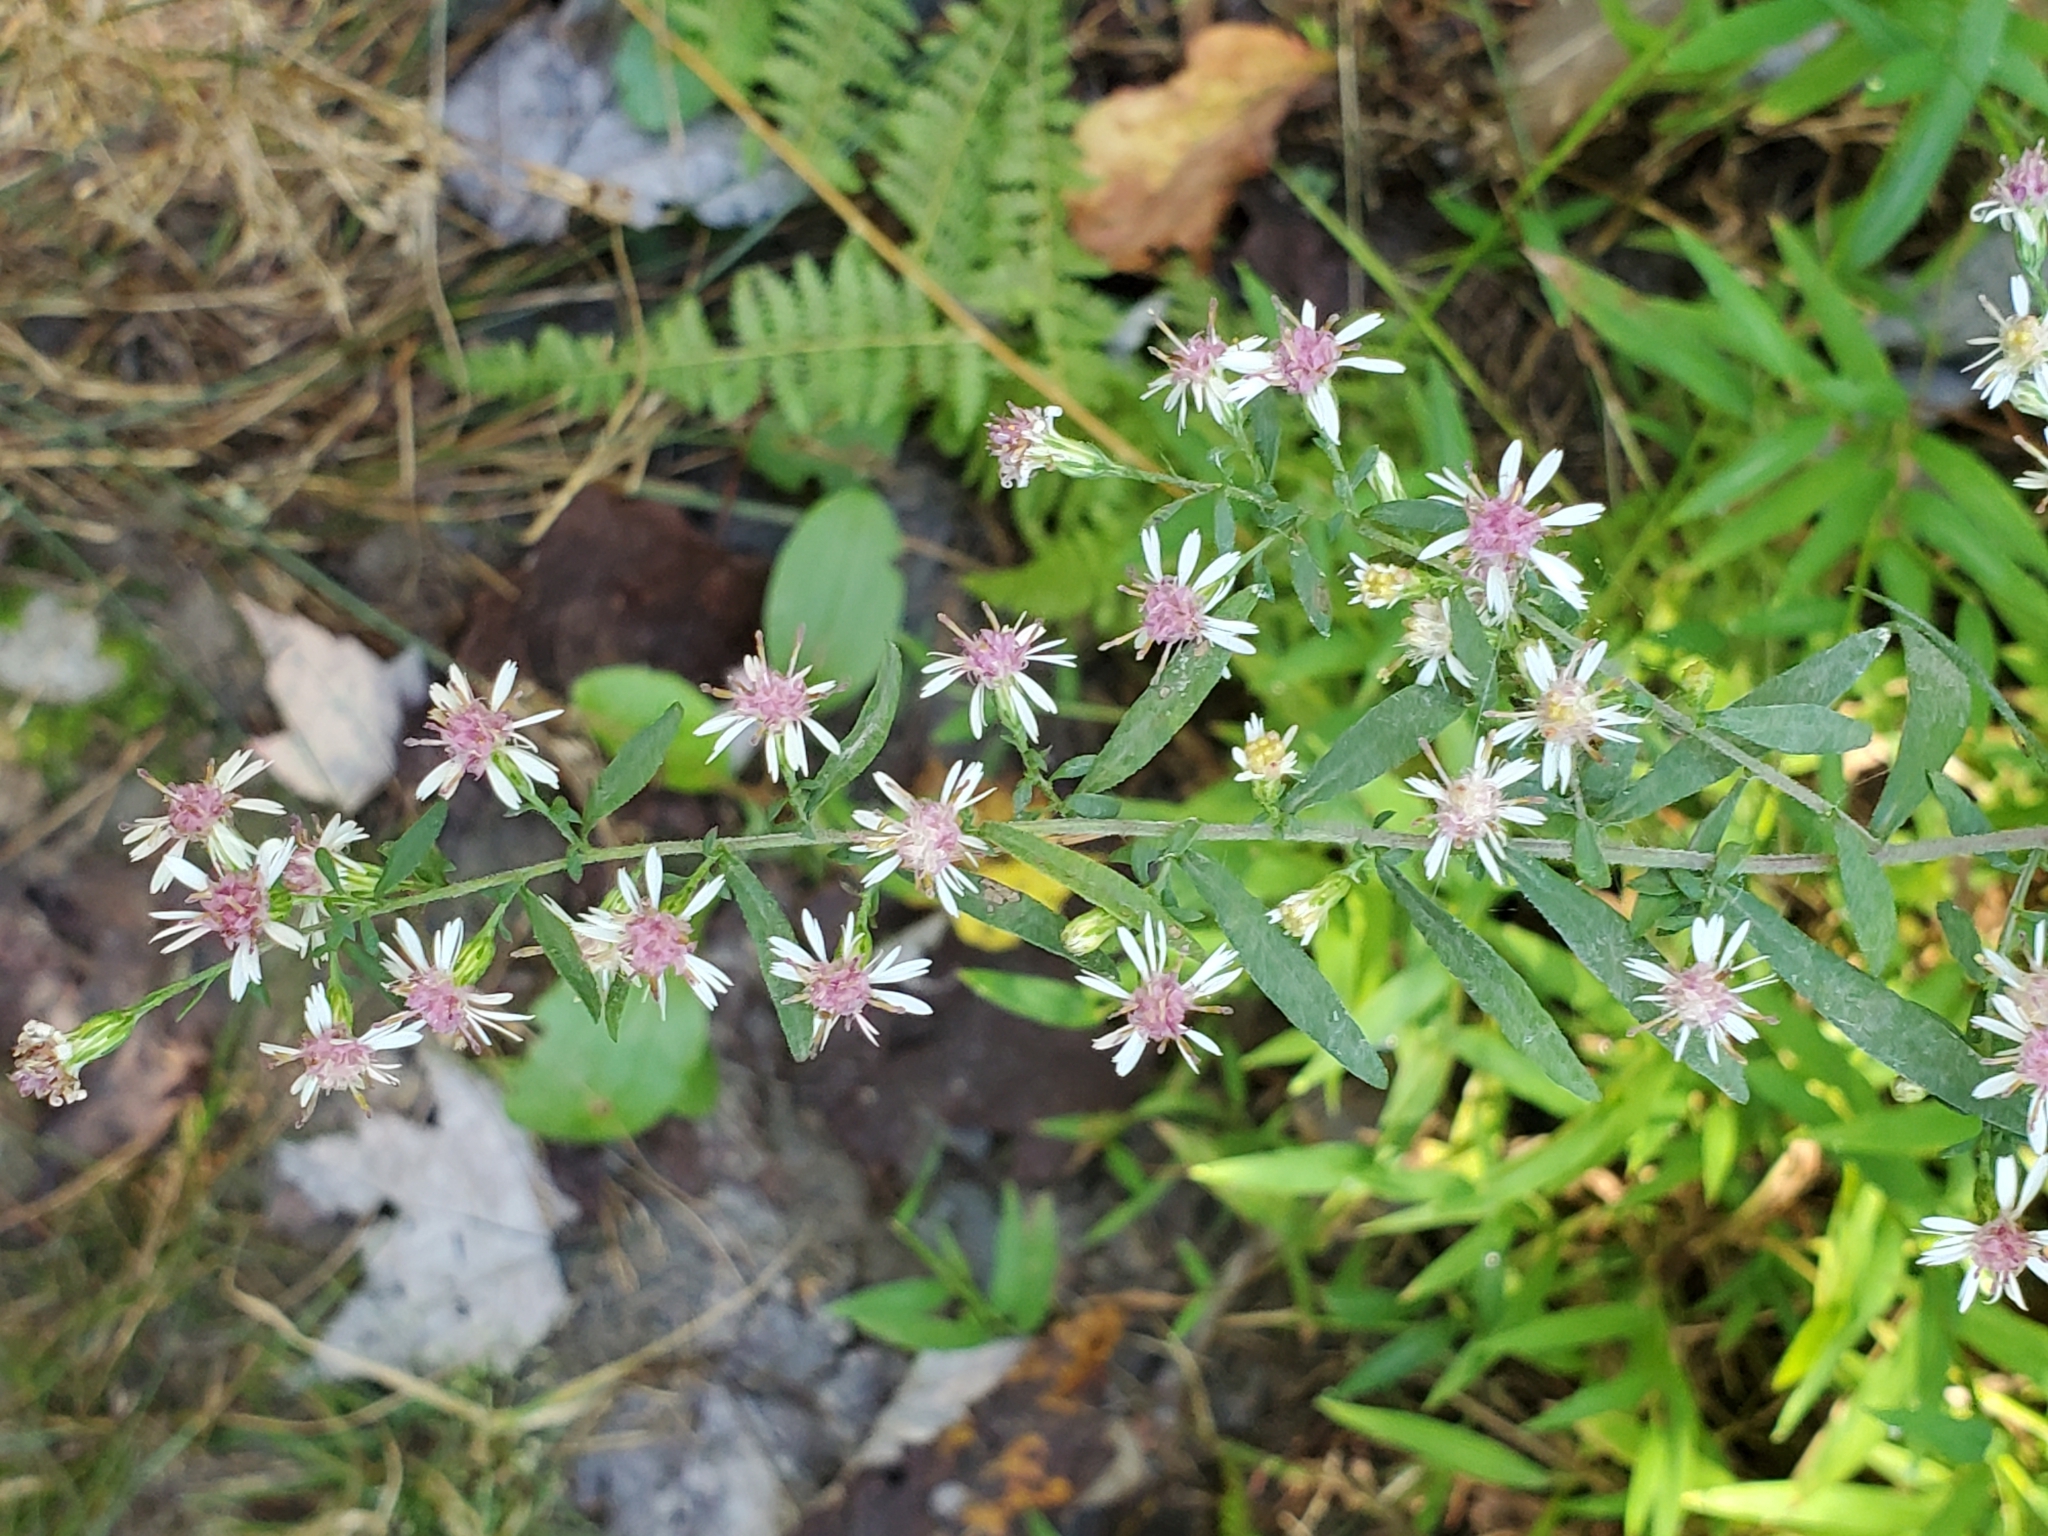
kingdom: Plantae
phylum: Tracheophyta
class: Magnoliopsida
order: Asterales
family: Asteraceae
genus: Symphyotrichum
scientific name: Symphyotrichum lateriflorum
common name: Calico aster
